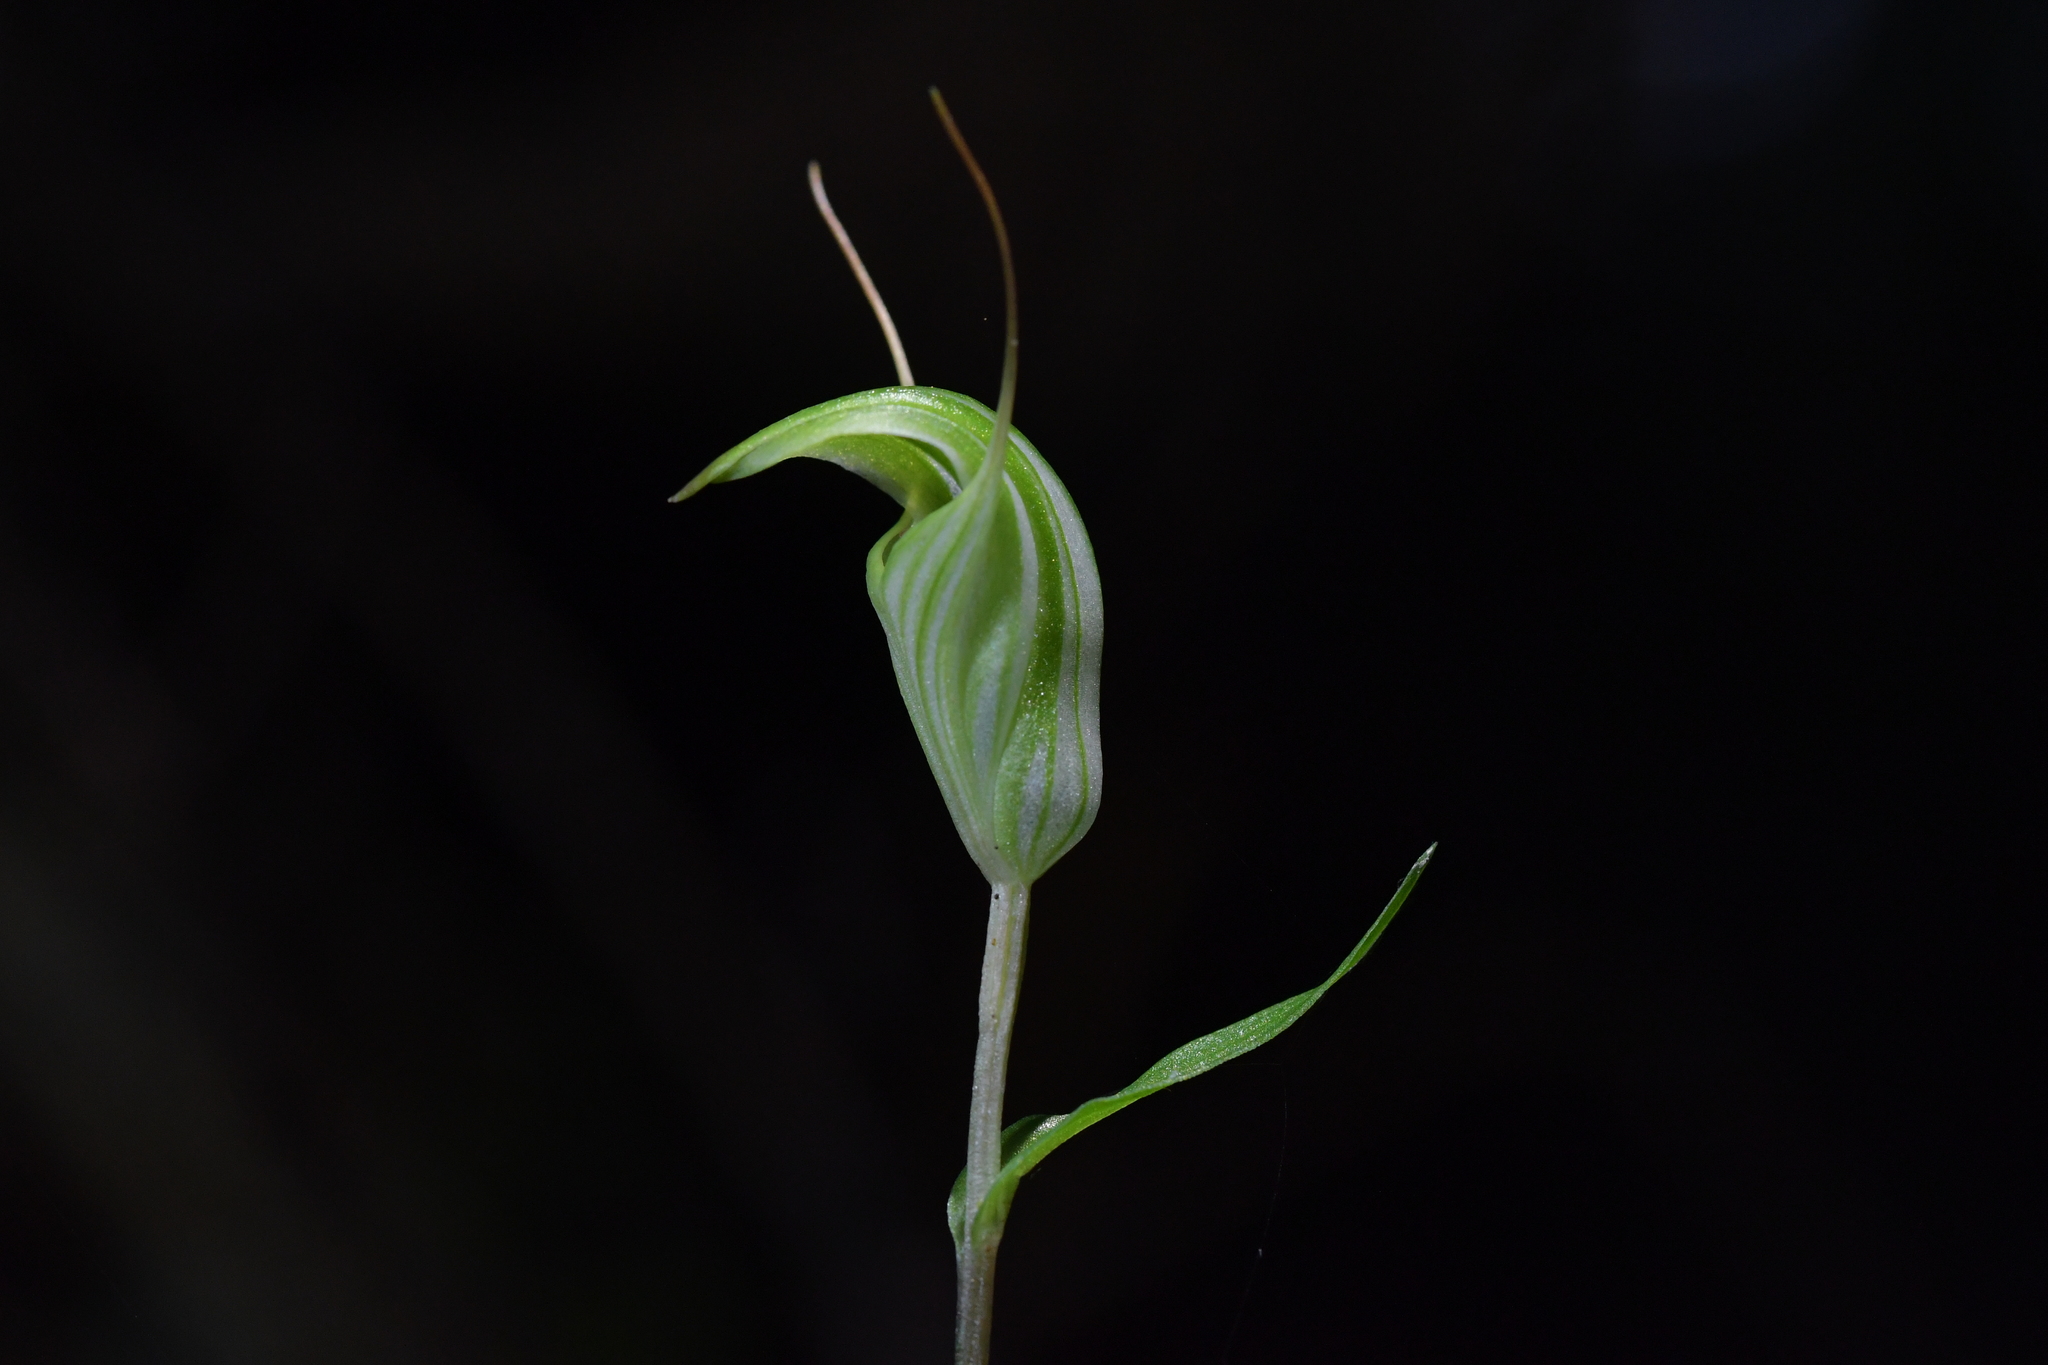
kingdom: Plantae
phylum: Tracheophyta
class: Liliopsida
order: Asparagales
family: Orchidaceae
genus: Pterostylis
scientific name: Pterostylis alobula
